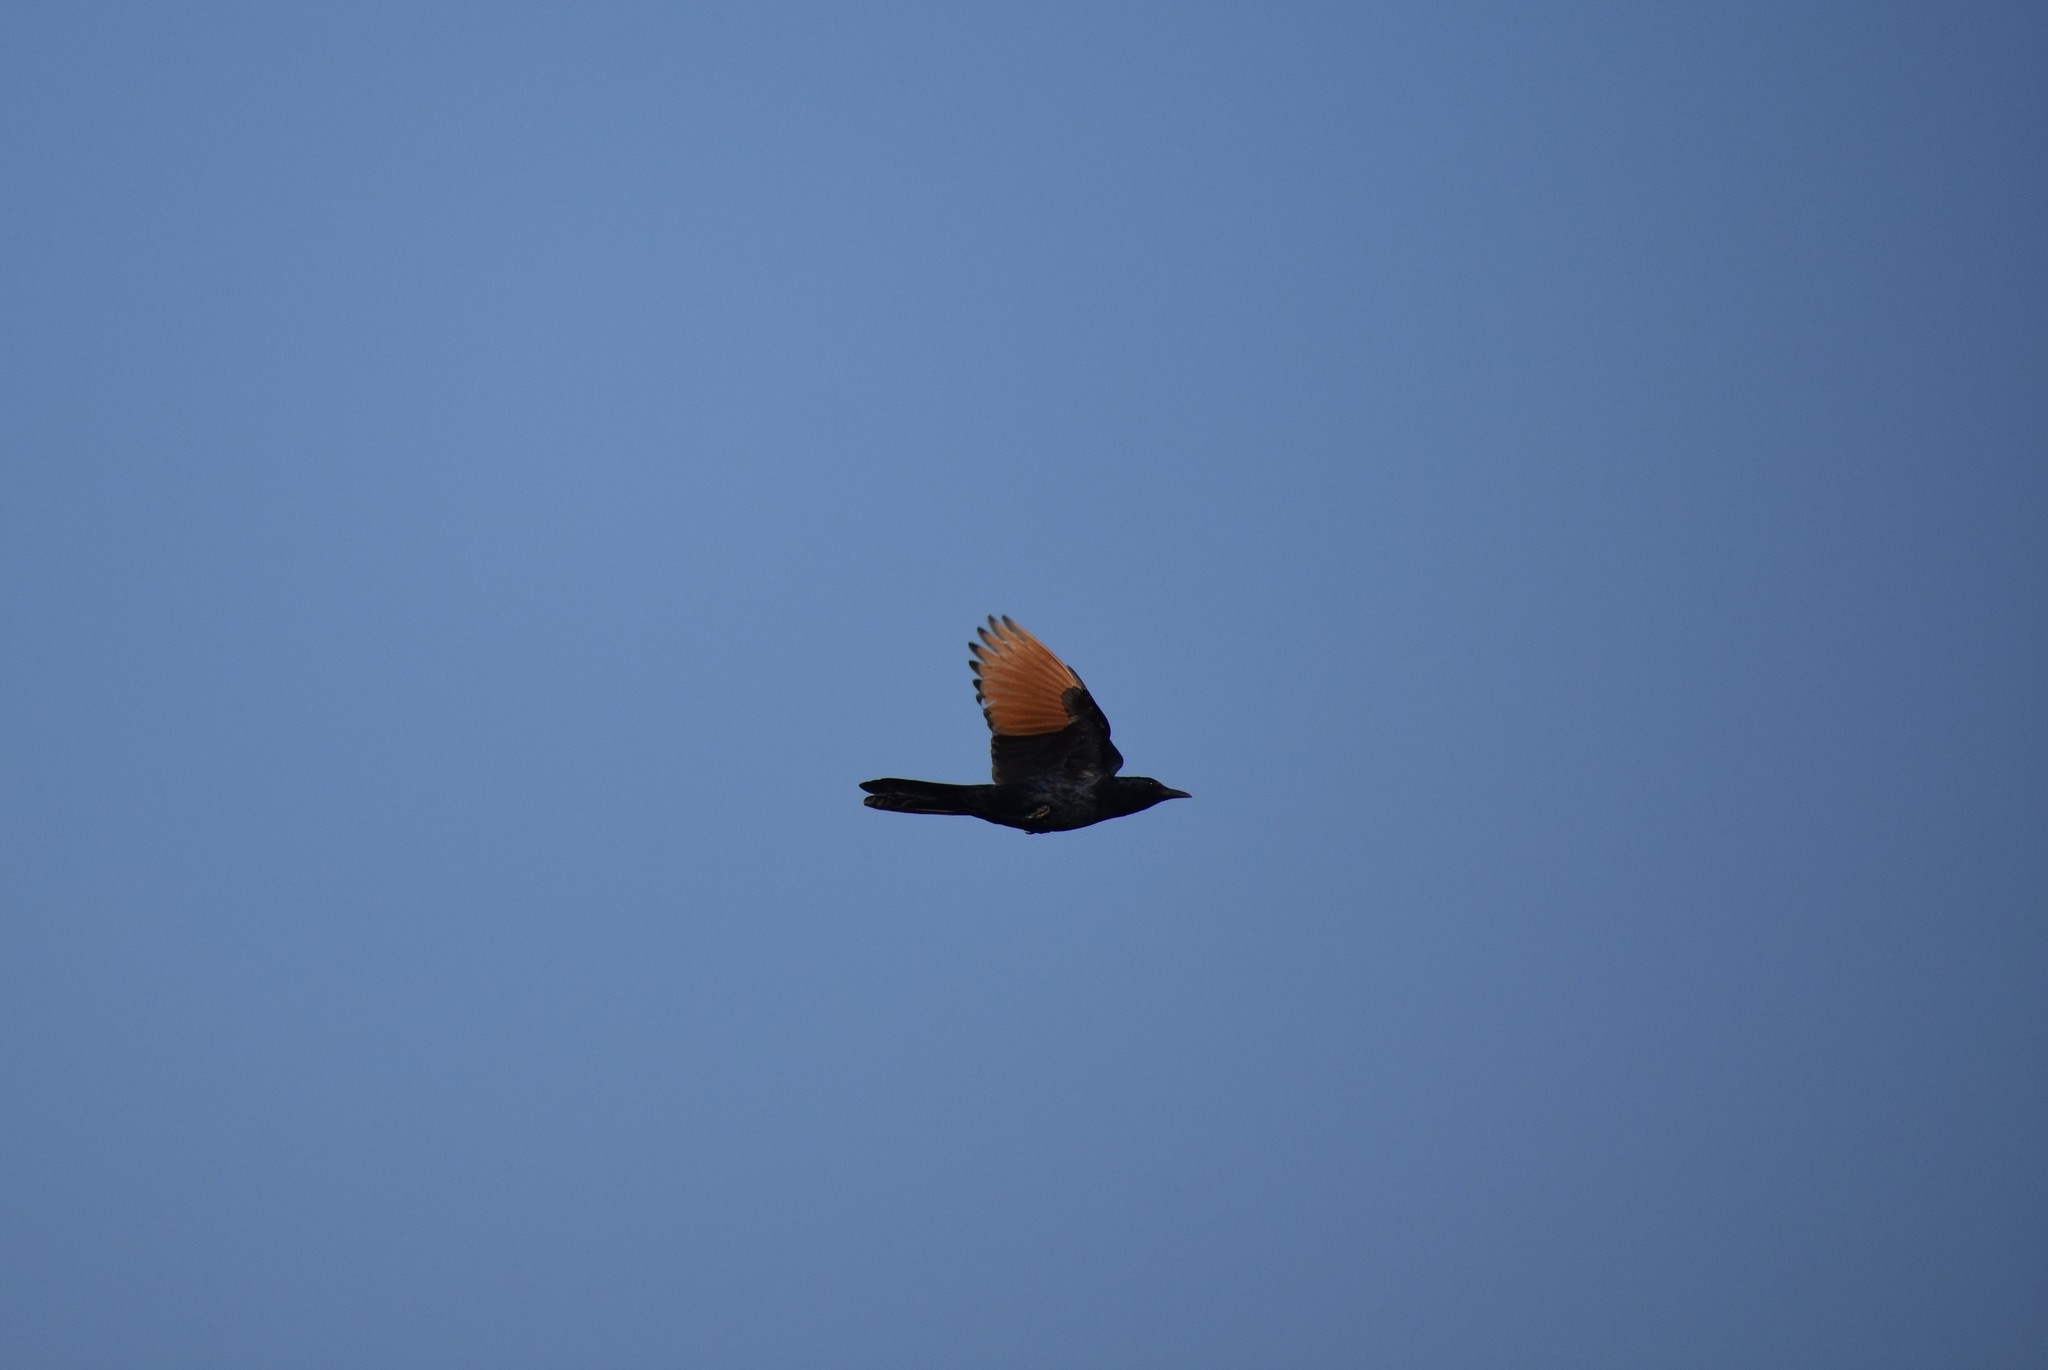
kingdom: Animalia
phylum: Chordata
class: Aves
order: Passeriformes
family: Sturnidae
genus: Onychognathus
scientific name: Onychognathus morio
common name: Red-winged starling
